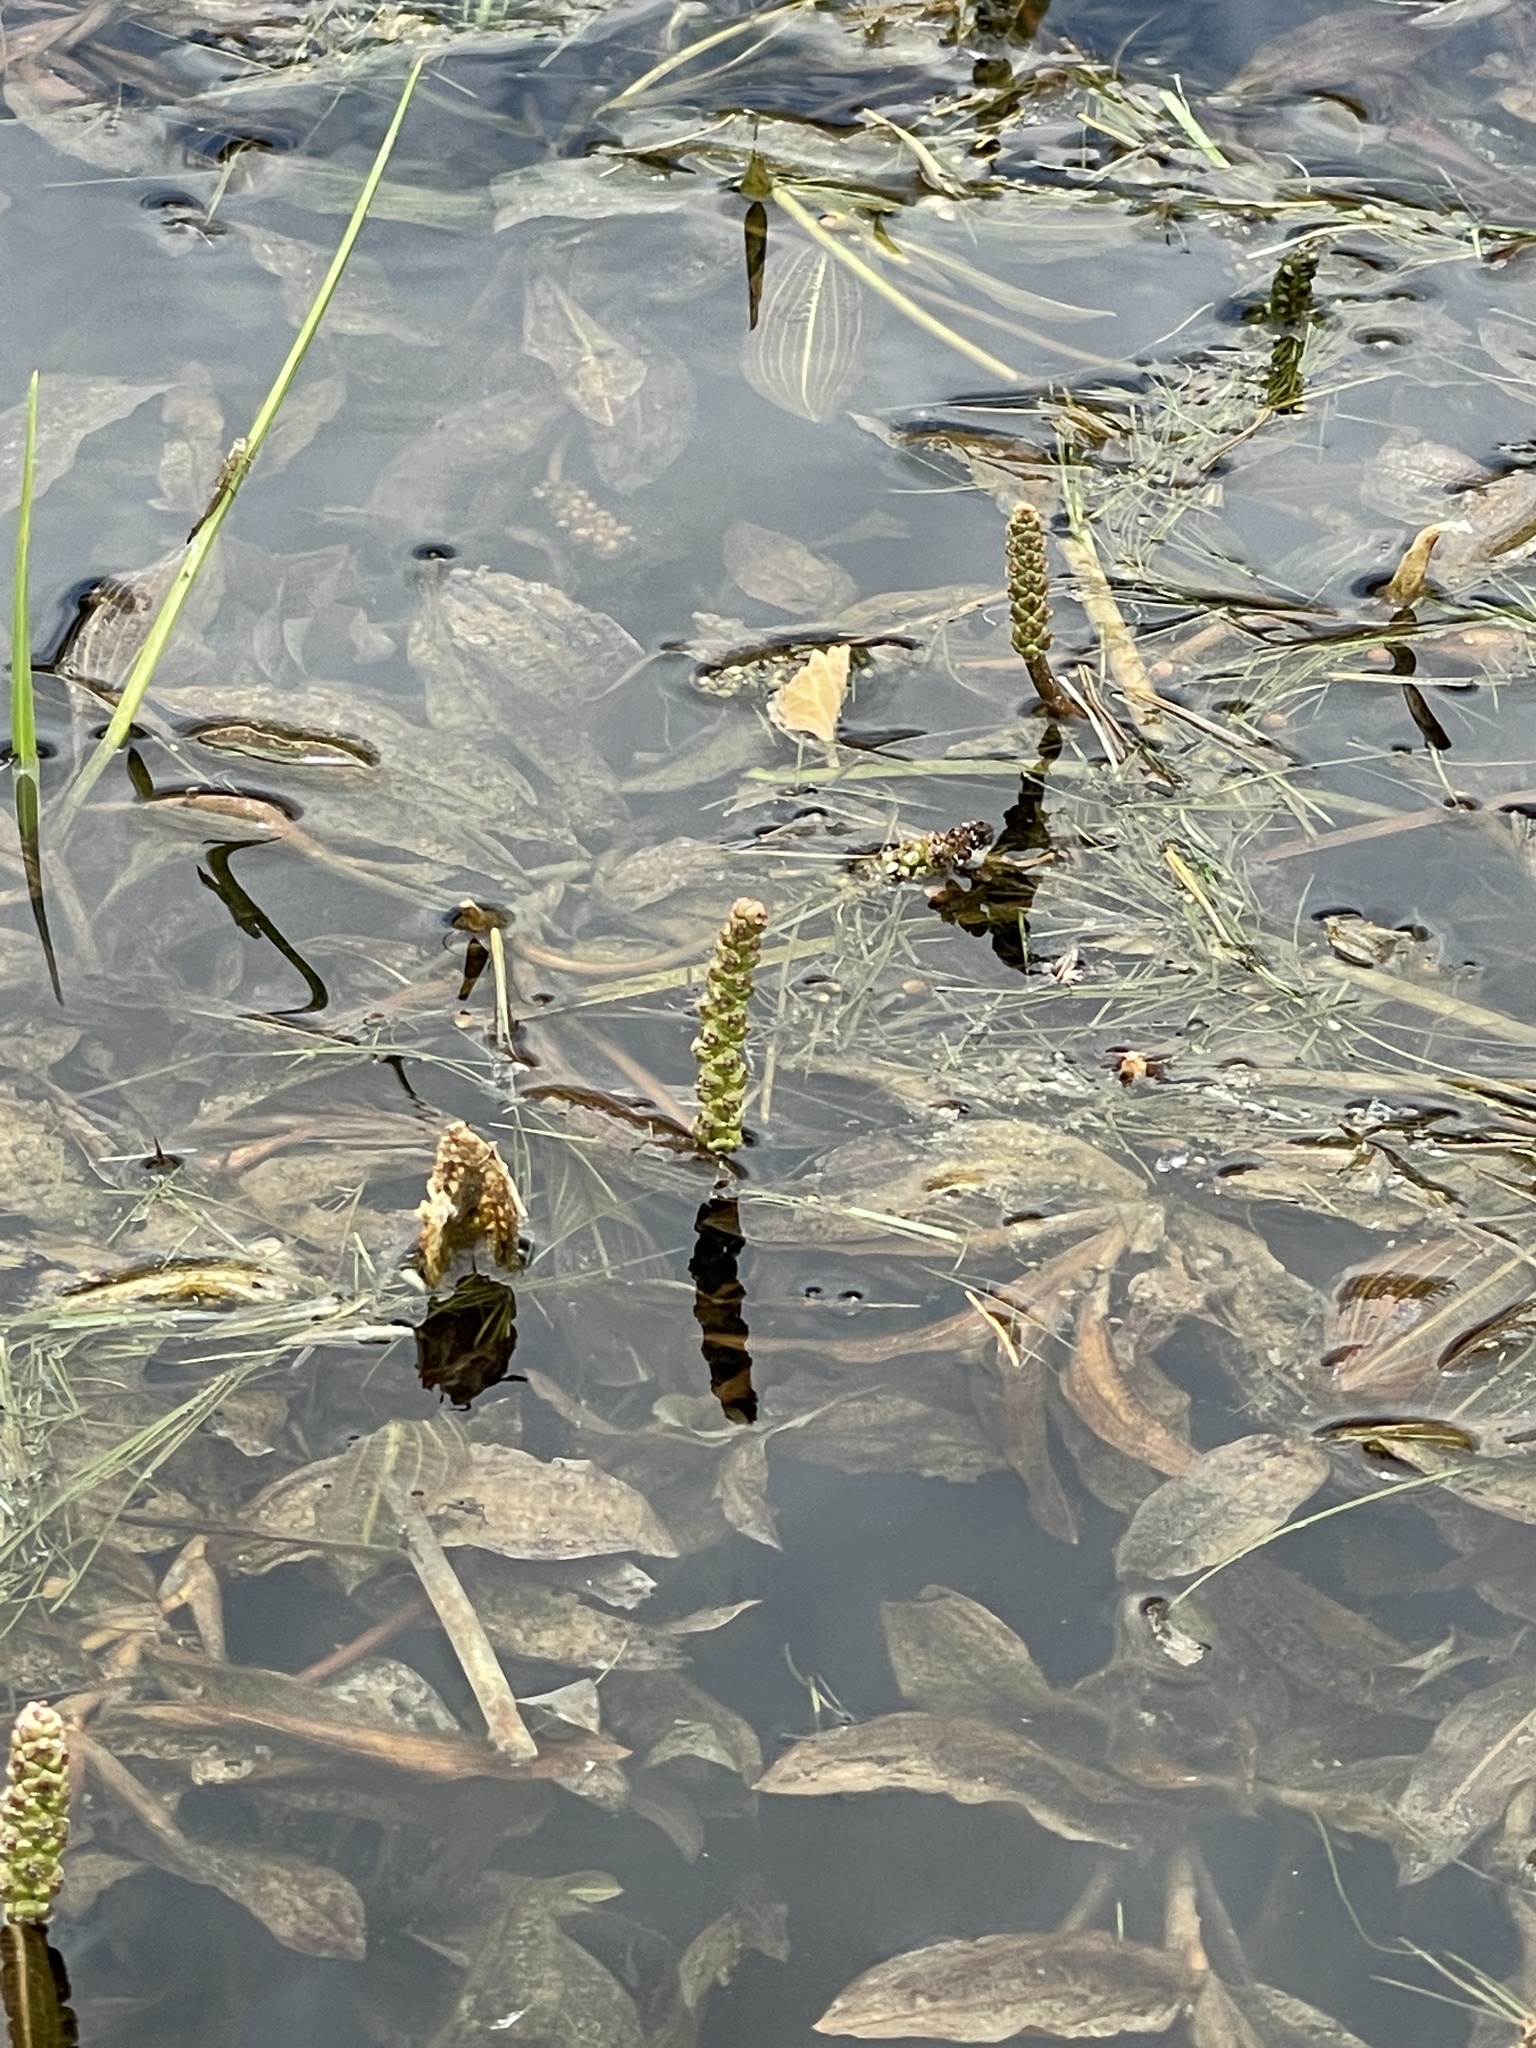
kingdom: Plantae
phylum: Tracheophyta
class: Liliopsida
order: Alismatales
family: Potamogetonaceae
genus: Potamogeton
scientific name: Potamogeton illinoensis
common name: Illinois pondweed
